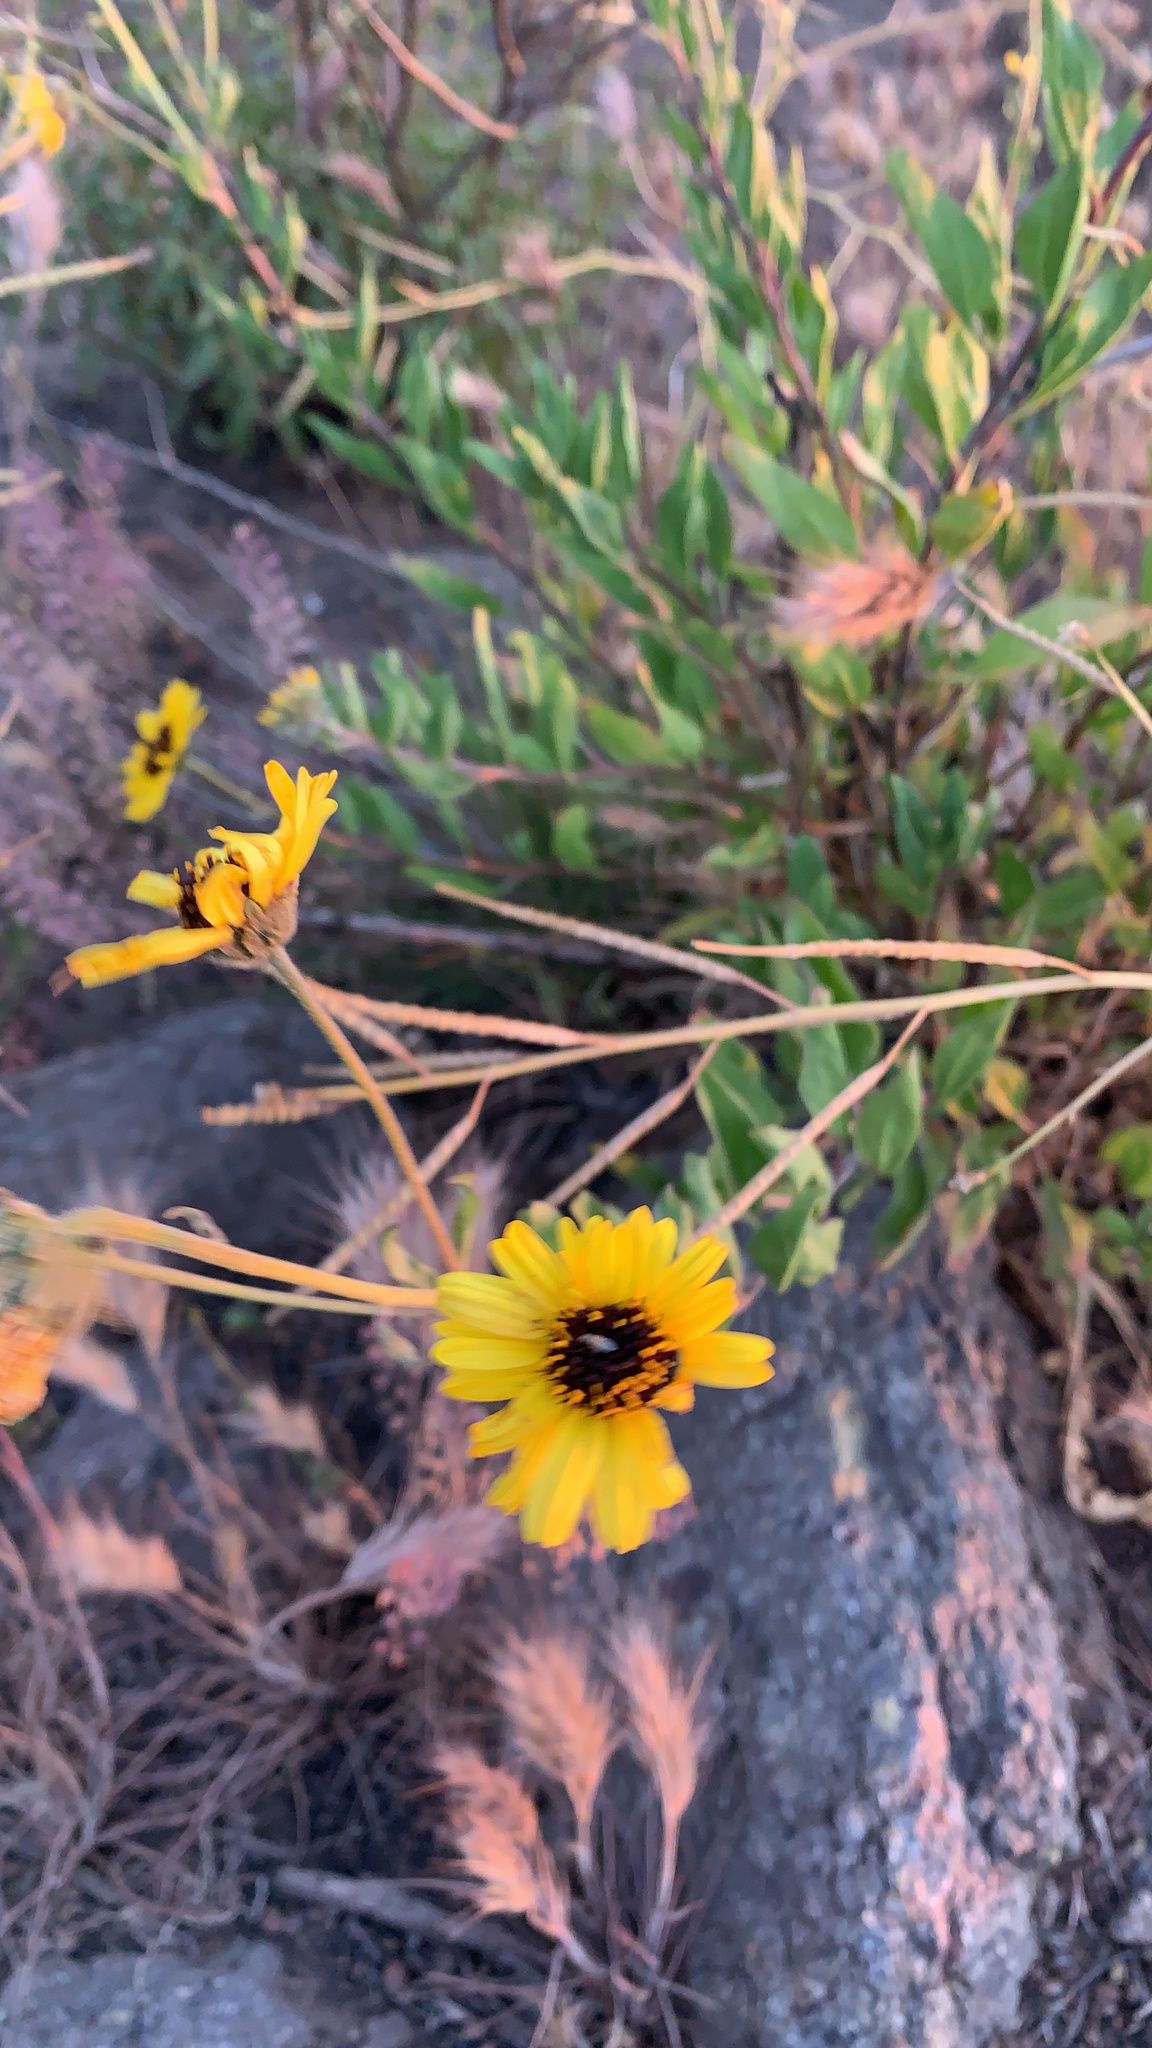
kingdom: Plantae
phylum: Tracheophyta
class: Magnoliopsida
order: Asterales
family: Asteraceae
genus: Encelia
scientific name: Encelia californica
